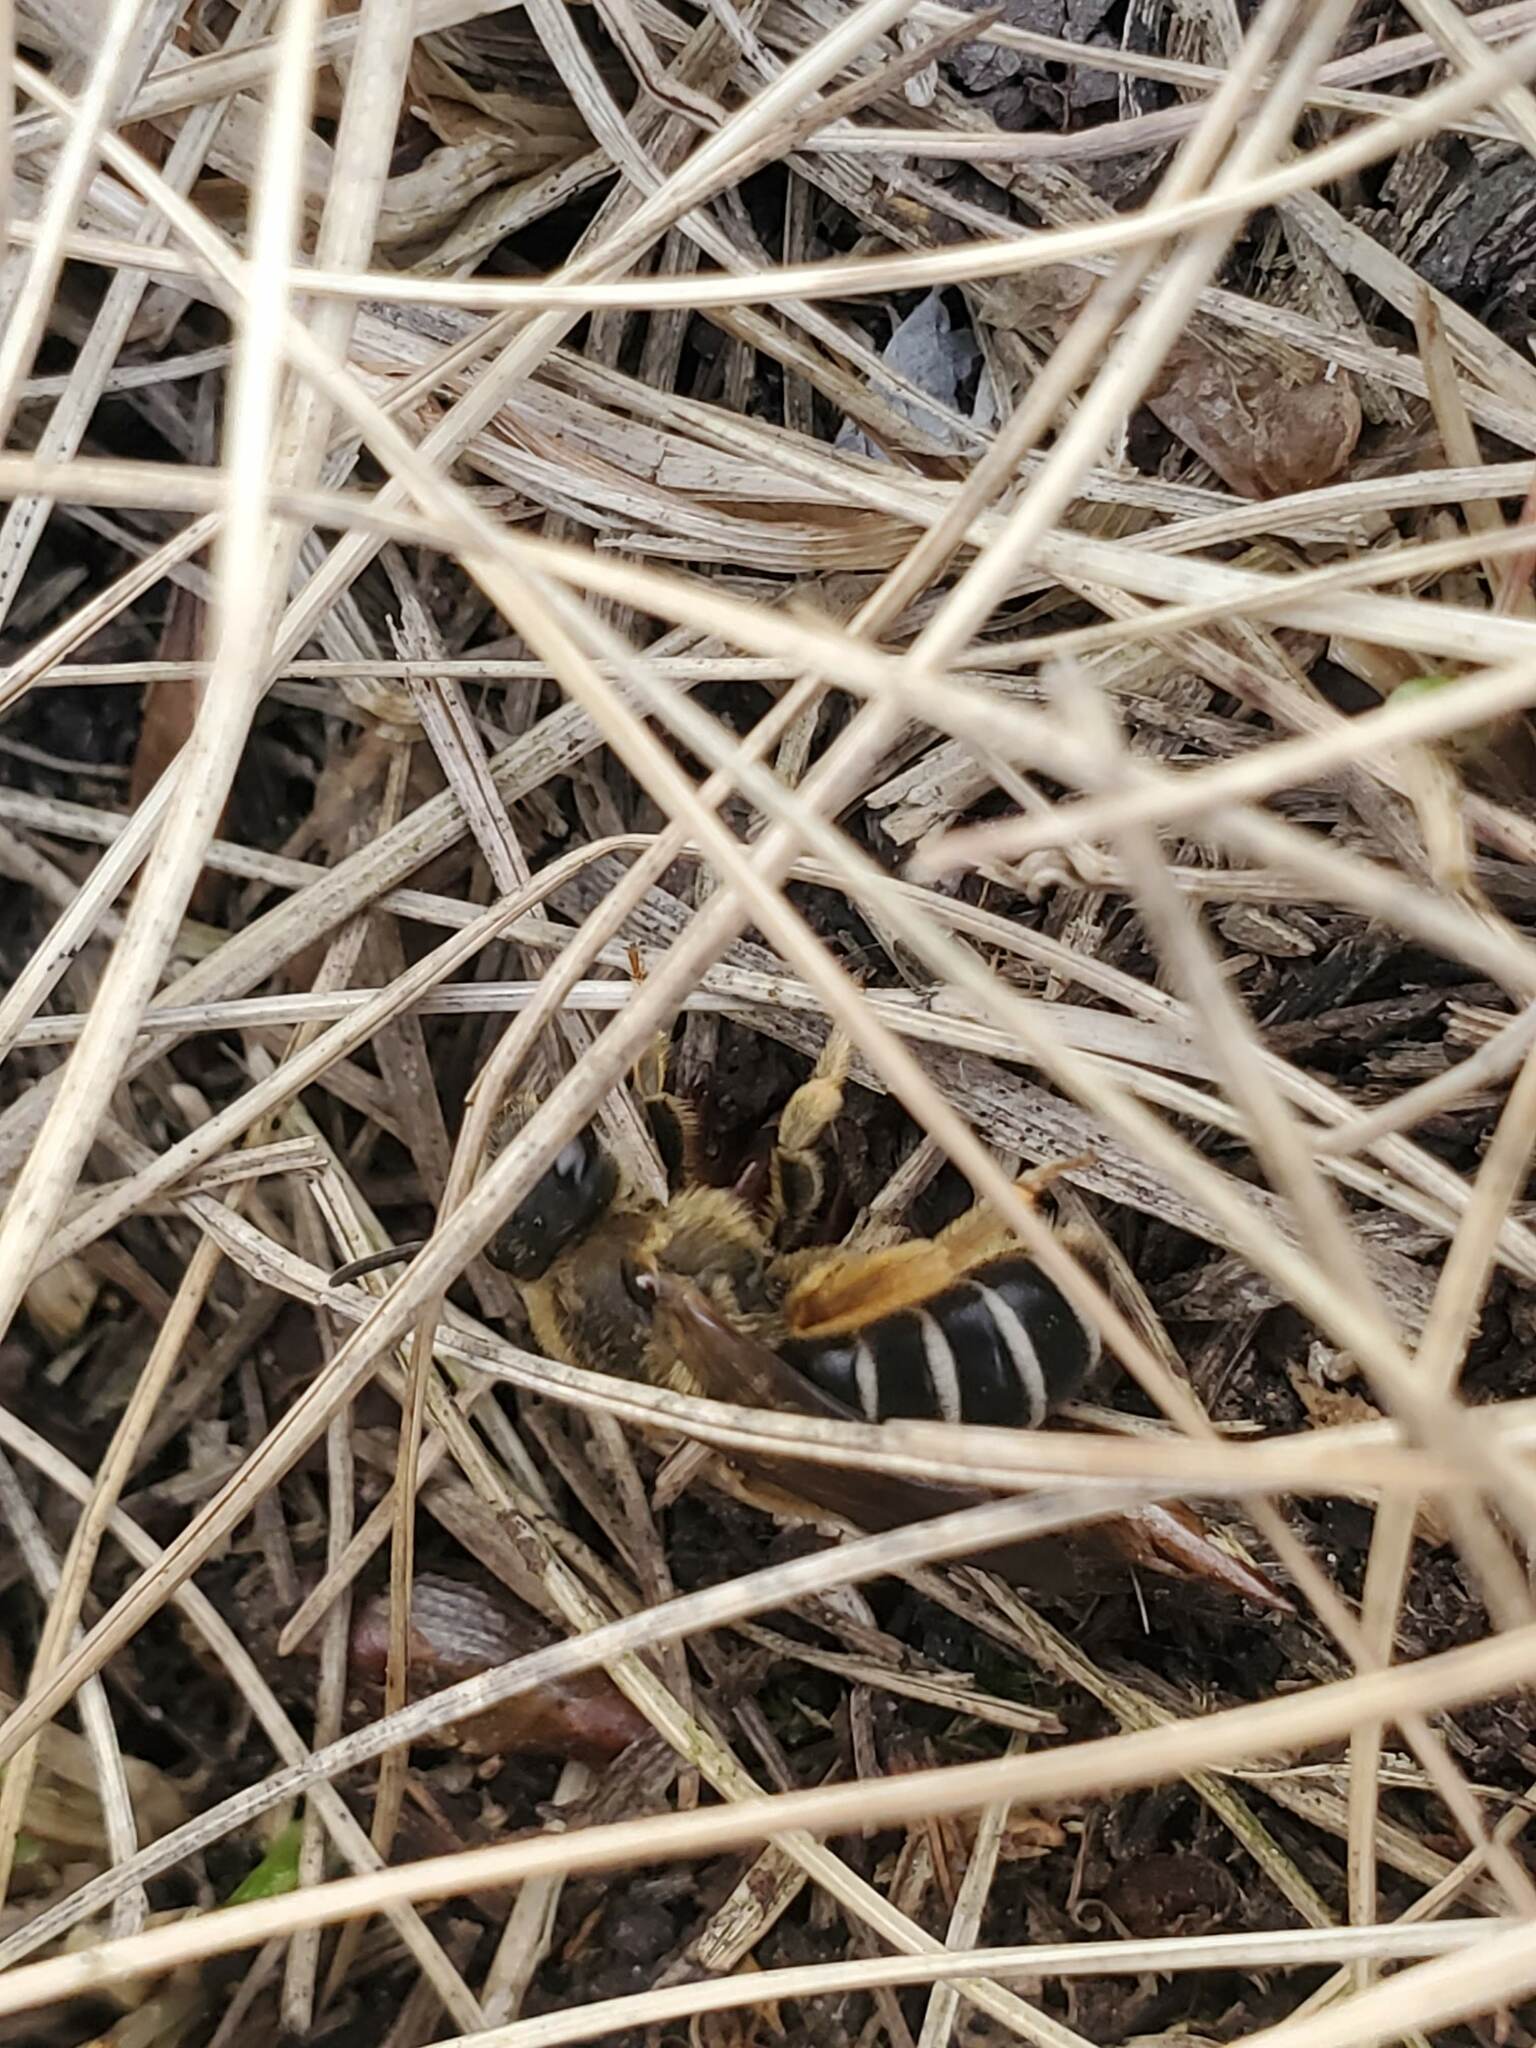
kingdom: Animalia
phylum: Arthropoda
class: Insecta
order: Hymenoptera
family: Halictidae
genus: Halictus
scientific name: Halictus rubicundus
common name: Orange-legged furrow bee
